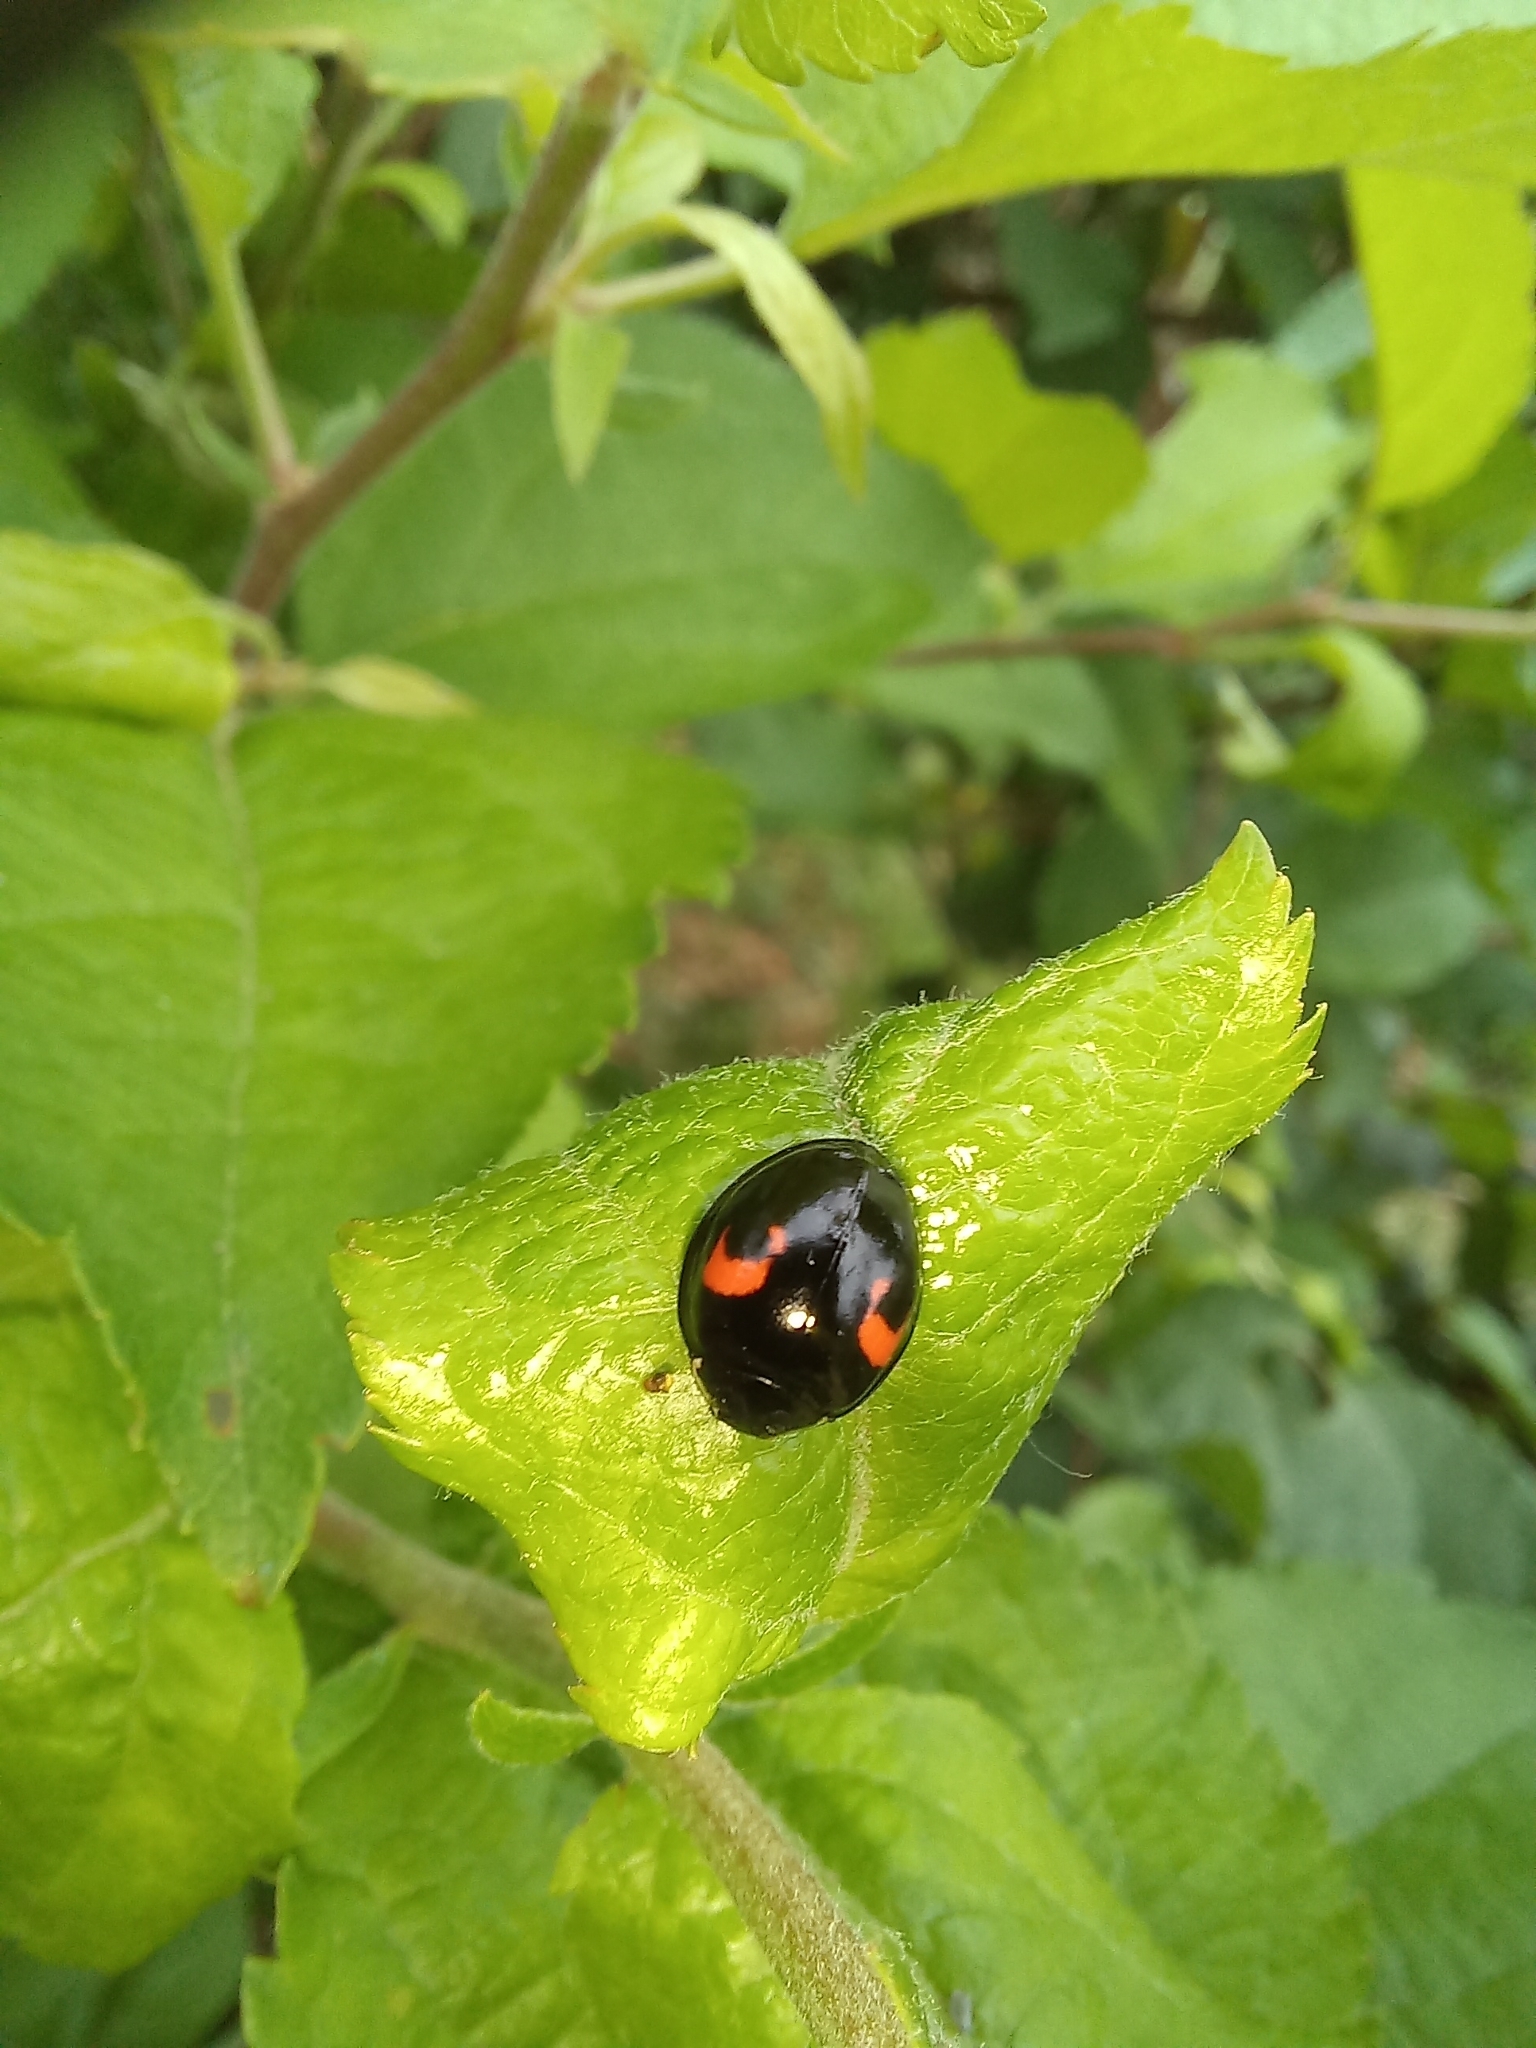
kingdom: Animalia
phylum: Arthropoda
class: Insecta
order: Coleoptera
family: Coccinellidae
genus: Harmonia
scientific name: Harmonia axyridis
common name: Harlequin ladybird
